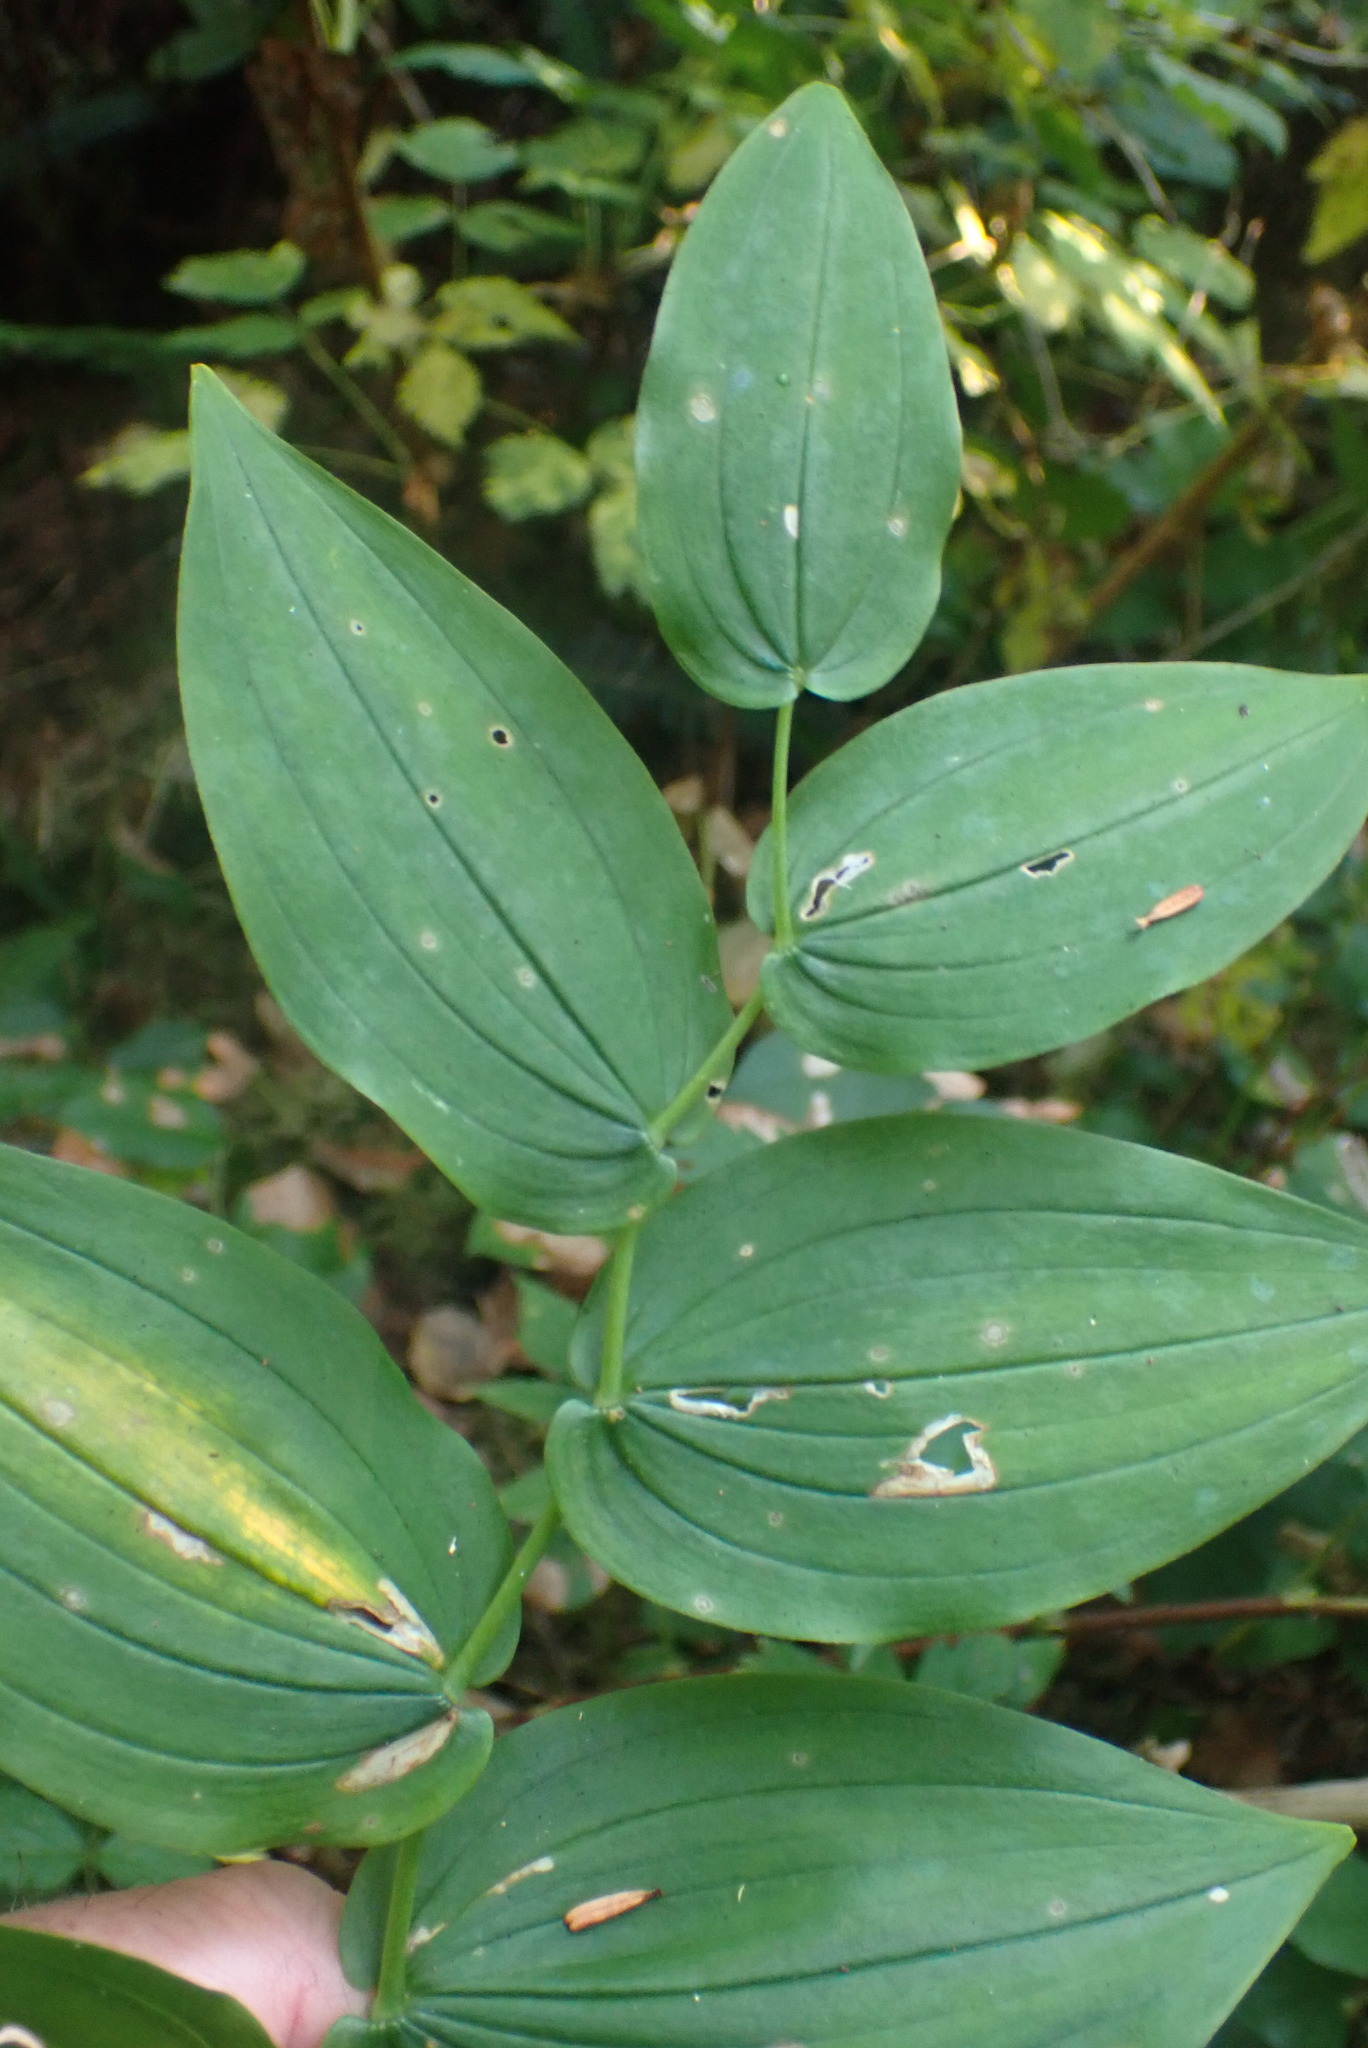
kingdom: Plantae
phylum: Tracheophyta
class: Liliopsida
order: Liliales
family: Liliaceae
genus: Streptopus
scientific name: Streptopus amplexifolius
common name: Clasp twisted stalk
